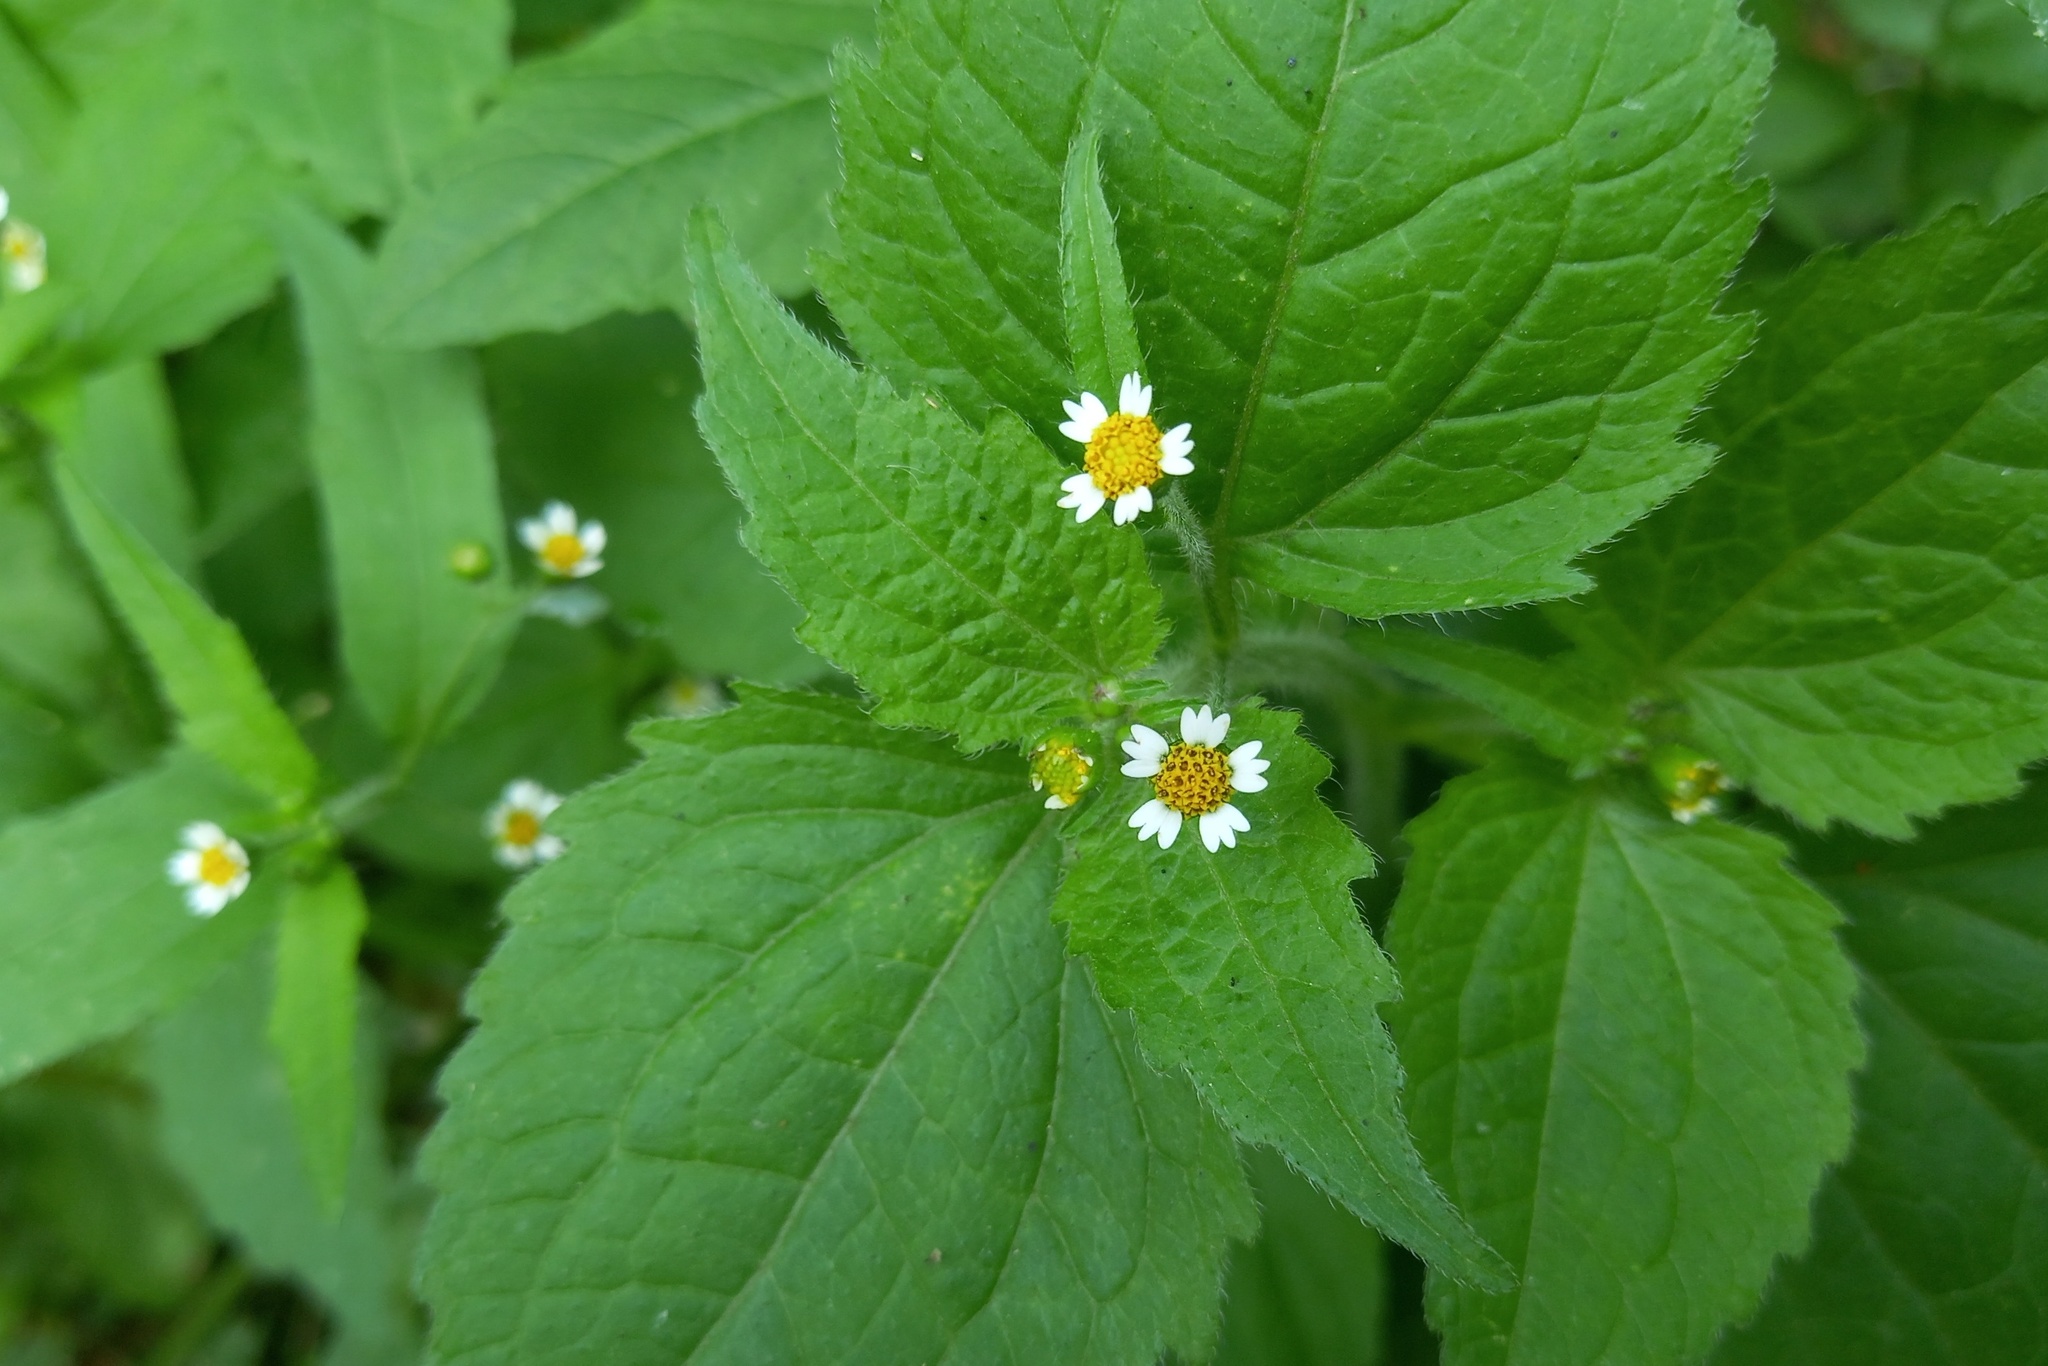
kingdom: Plantae
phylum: Tracheophyta
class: Magnoliopsida
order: Asterales
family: Asteraceae
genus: Galinsoga
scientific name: Galinsoga quadriradiata
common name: Shaggy soldier
